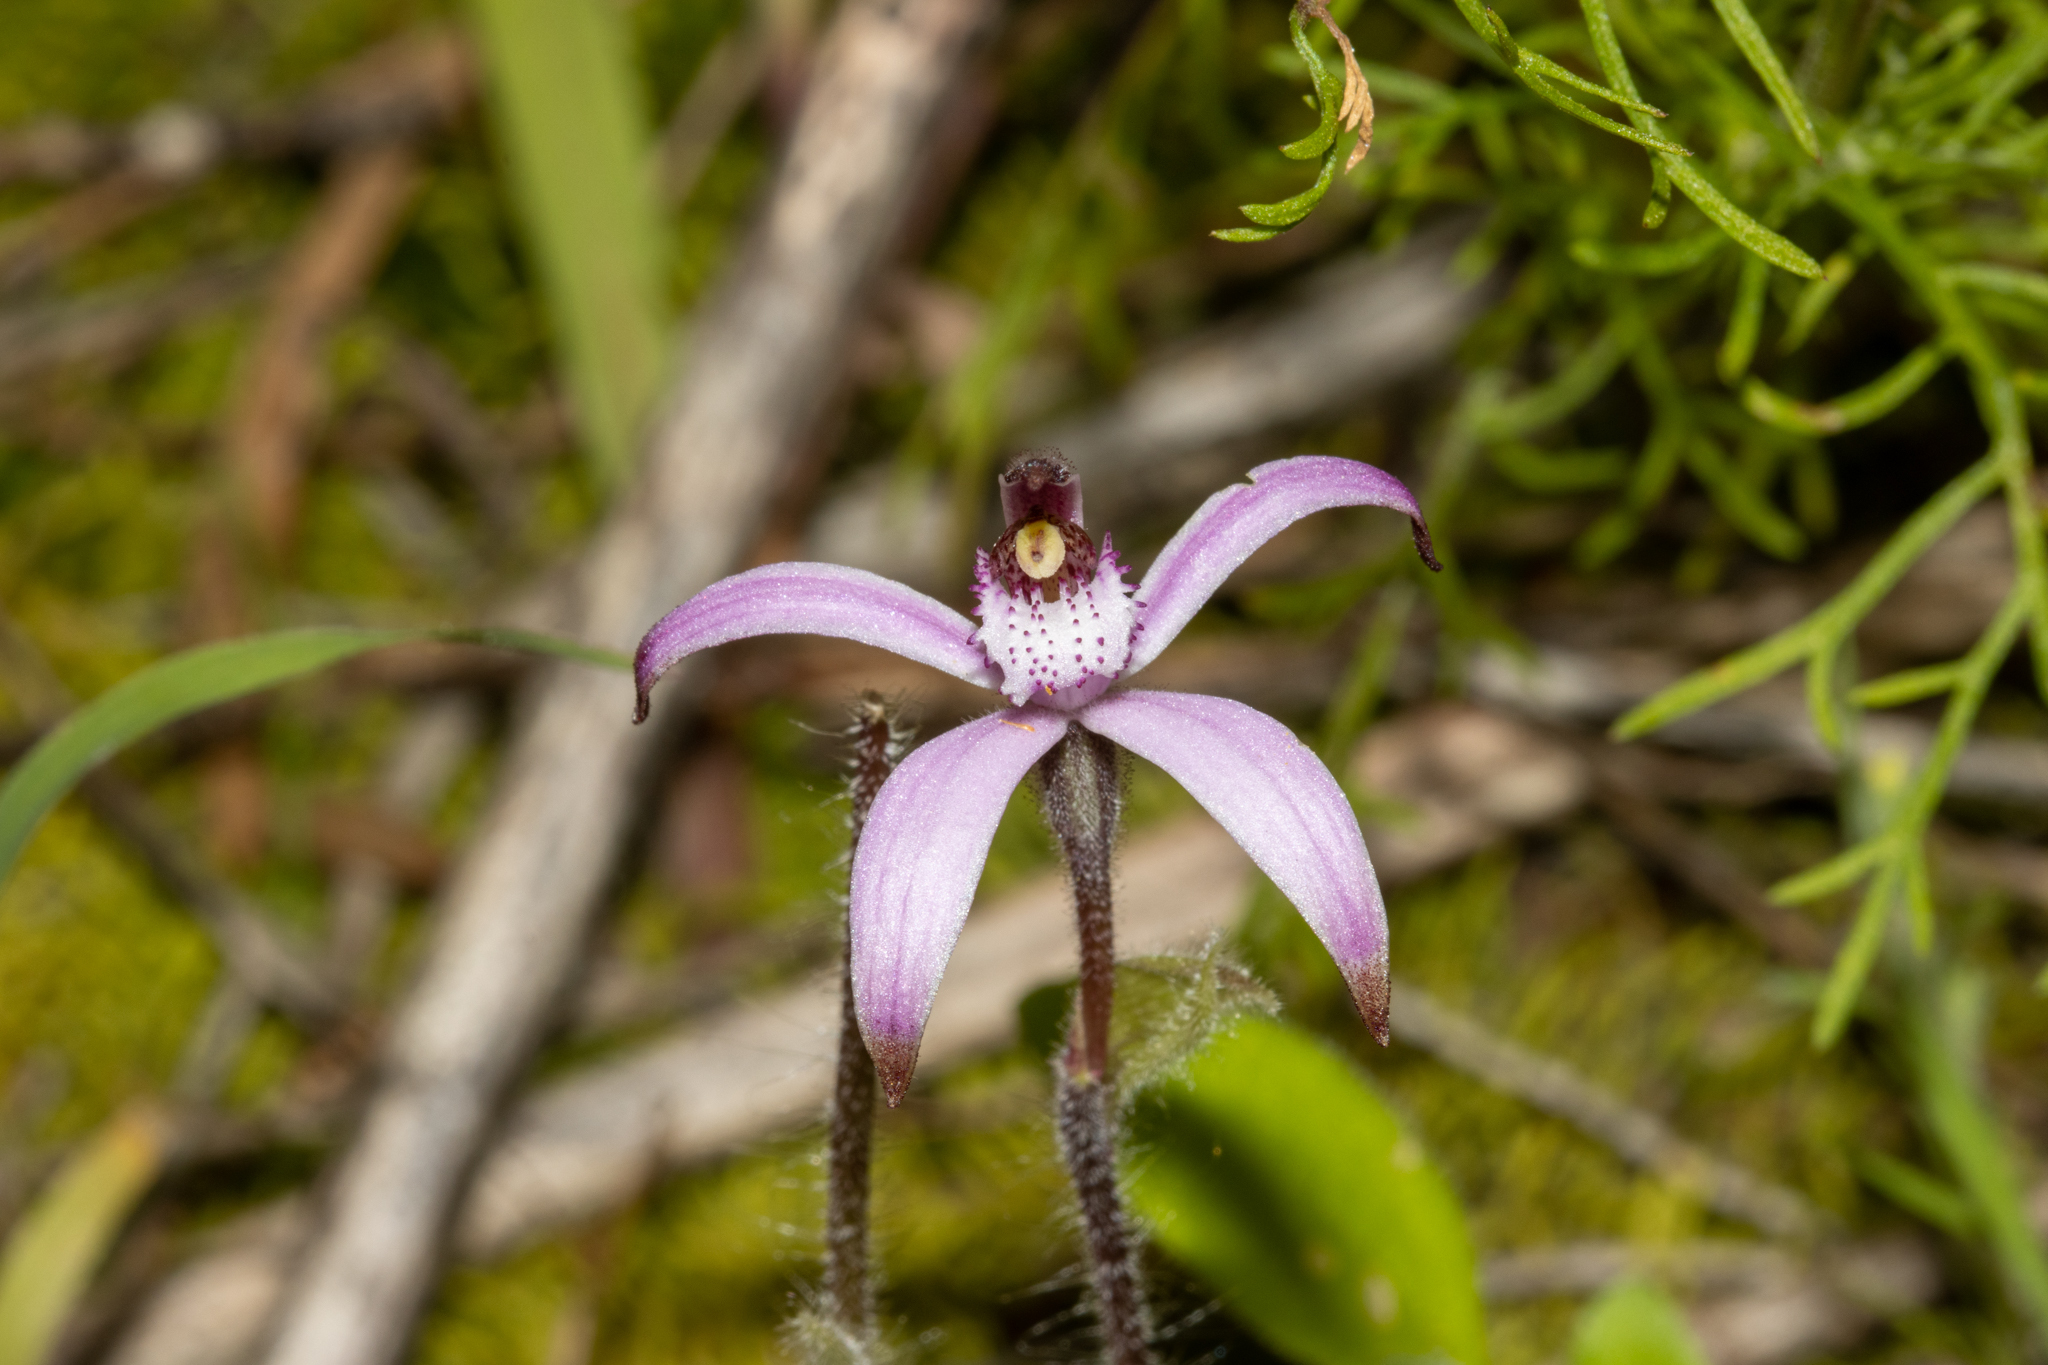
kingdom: Plantae
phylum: Tracheophyta
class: Liliopsida
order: Asparagales
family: Orchidaceae
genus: Caladenia
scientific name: Caladenia hirta
